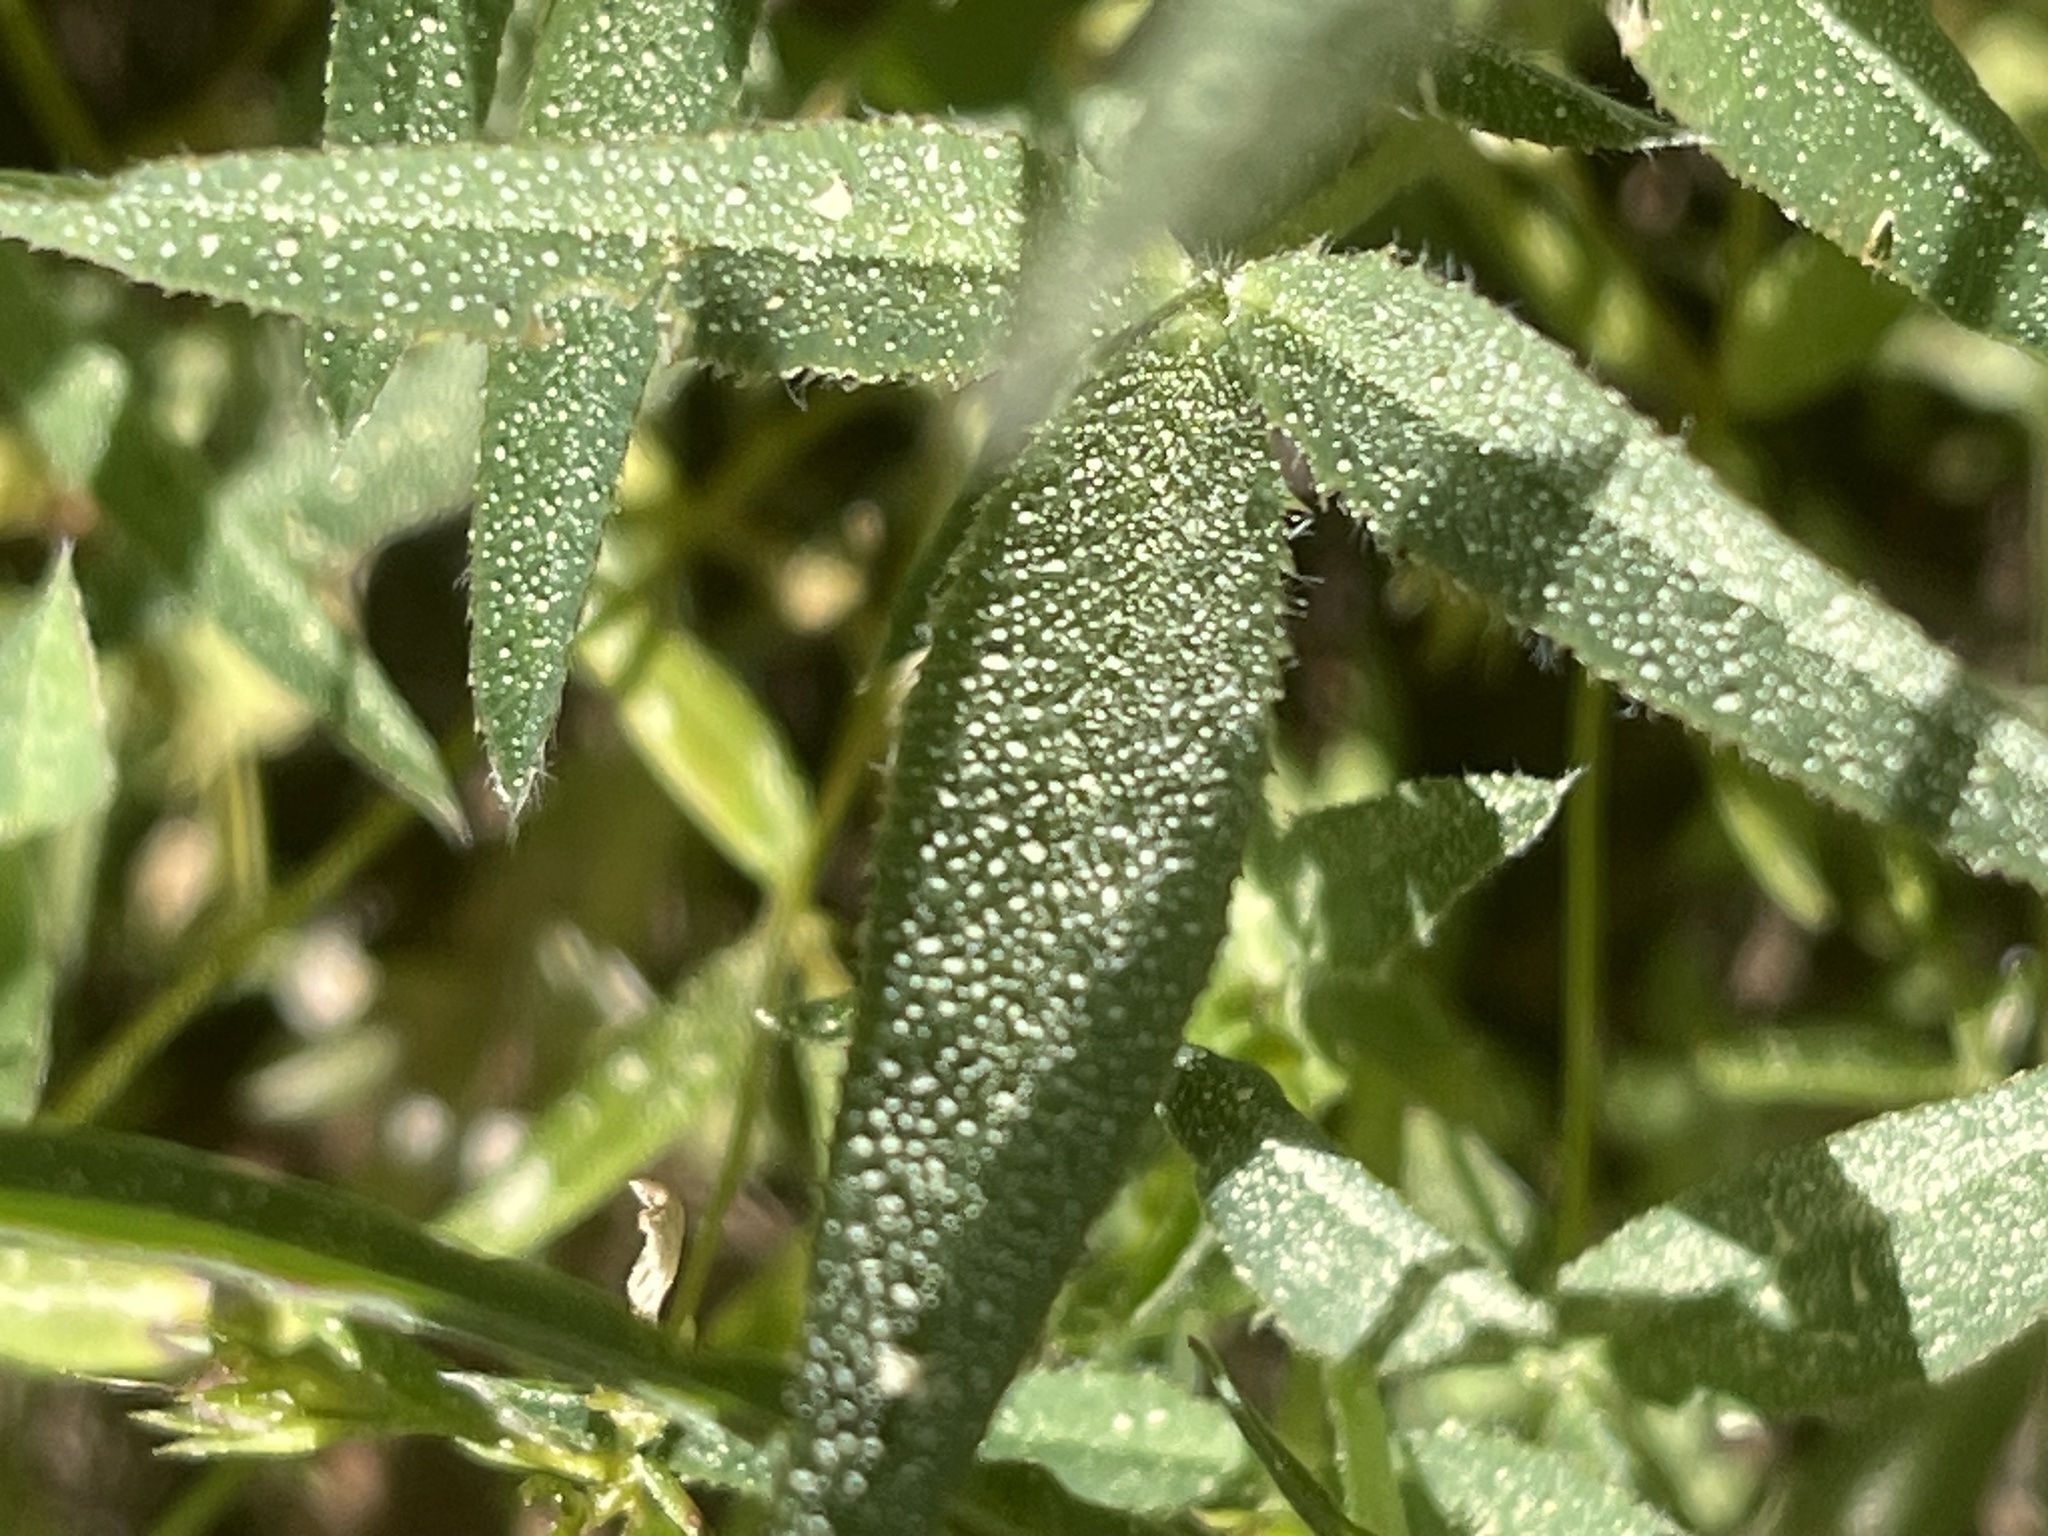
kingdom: Plantae
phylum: Tracheophyta
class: Magnoliopsida
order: Fabales
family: Fabaceae
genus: Trifolium
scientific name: Trifolium longipes
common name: Long-stalk clover
